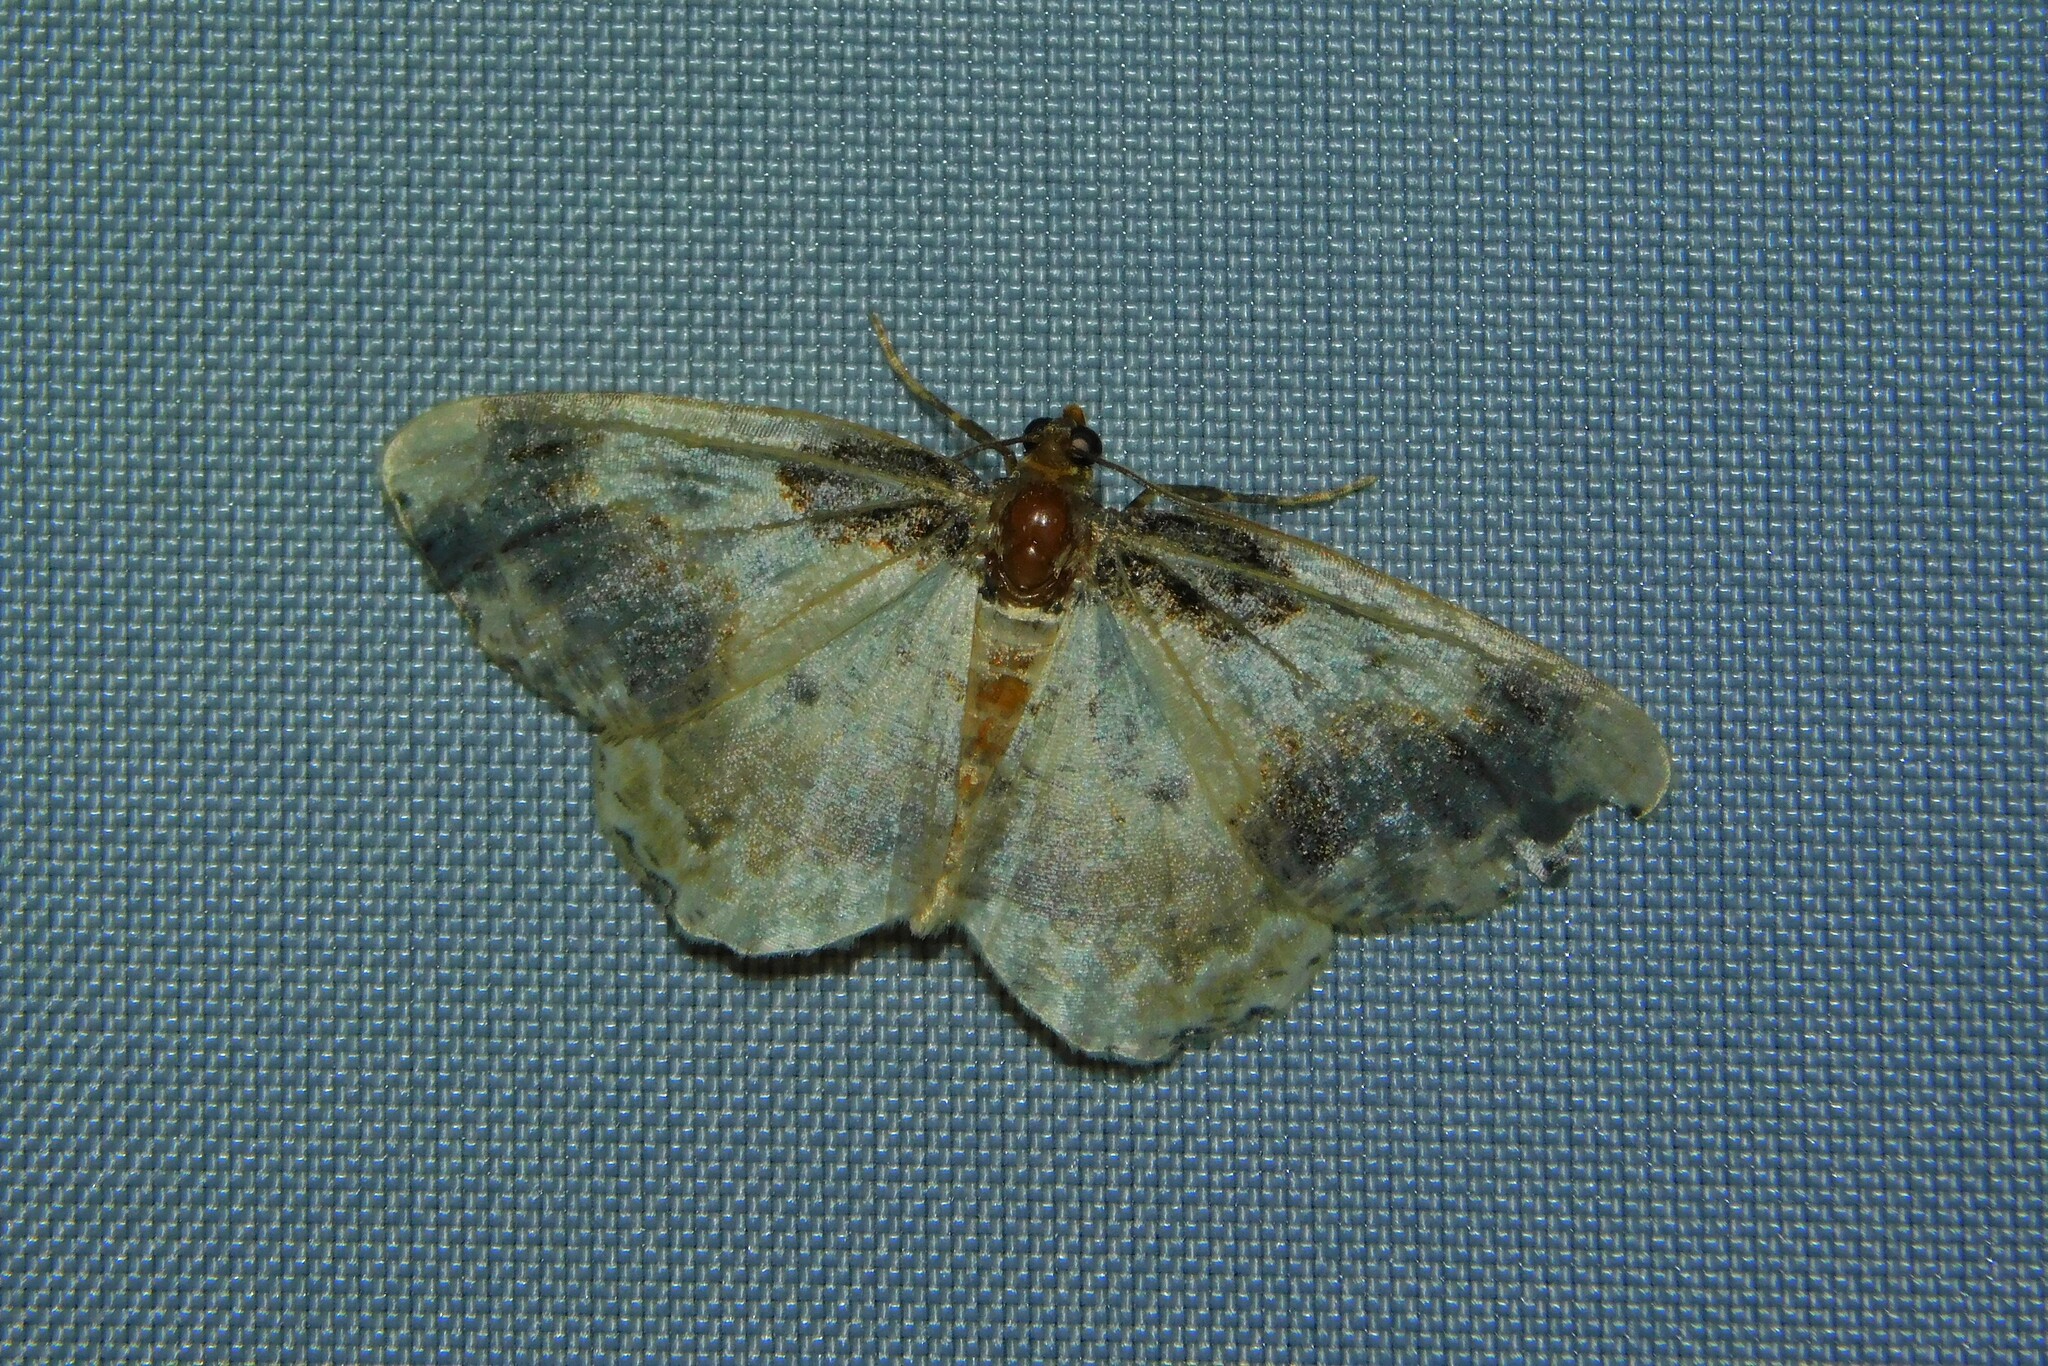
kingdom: Animalia
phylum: Arthropoda
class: Insecta
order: Lepidoptera
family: Geometridae
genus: Ligdia
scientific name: Ligdia adustata
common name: Scorched carpet
